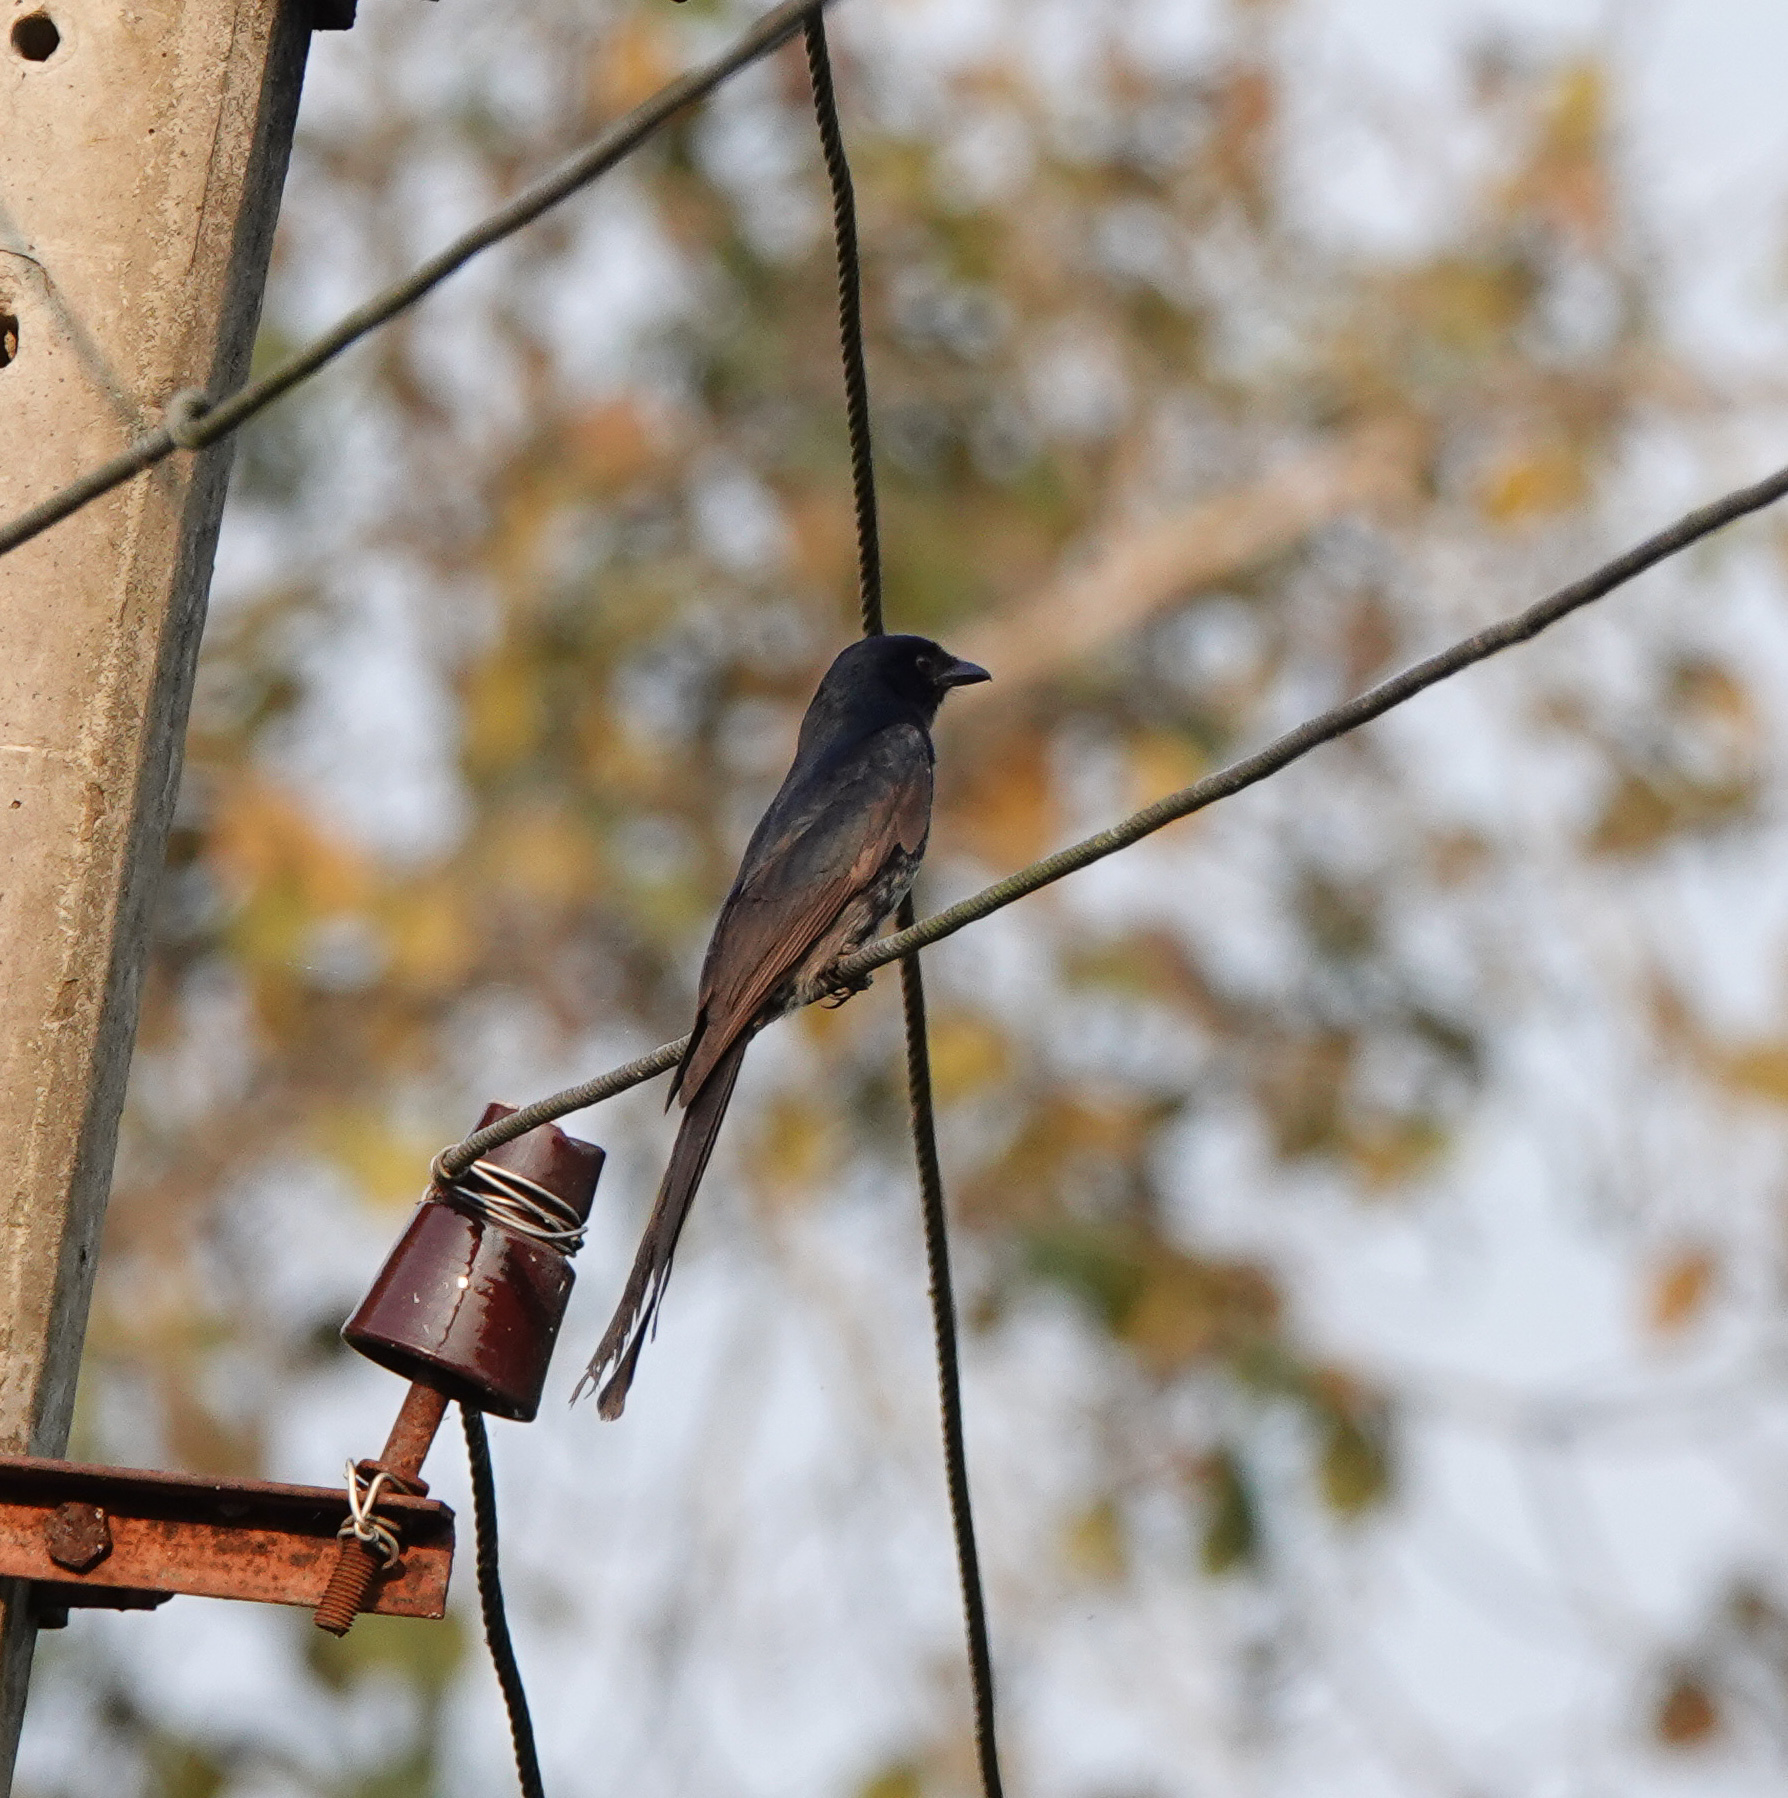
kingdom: Animalia
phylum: Chordata
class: Aves
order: Passeriformes
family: Dicruridae
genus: Dicrurus
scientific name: Dicrurus macrocercus
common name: Black drongo
